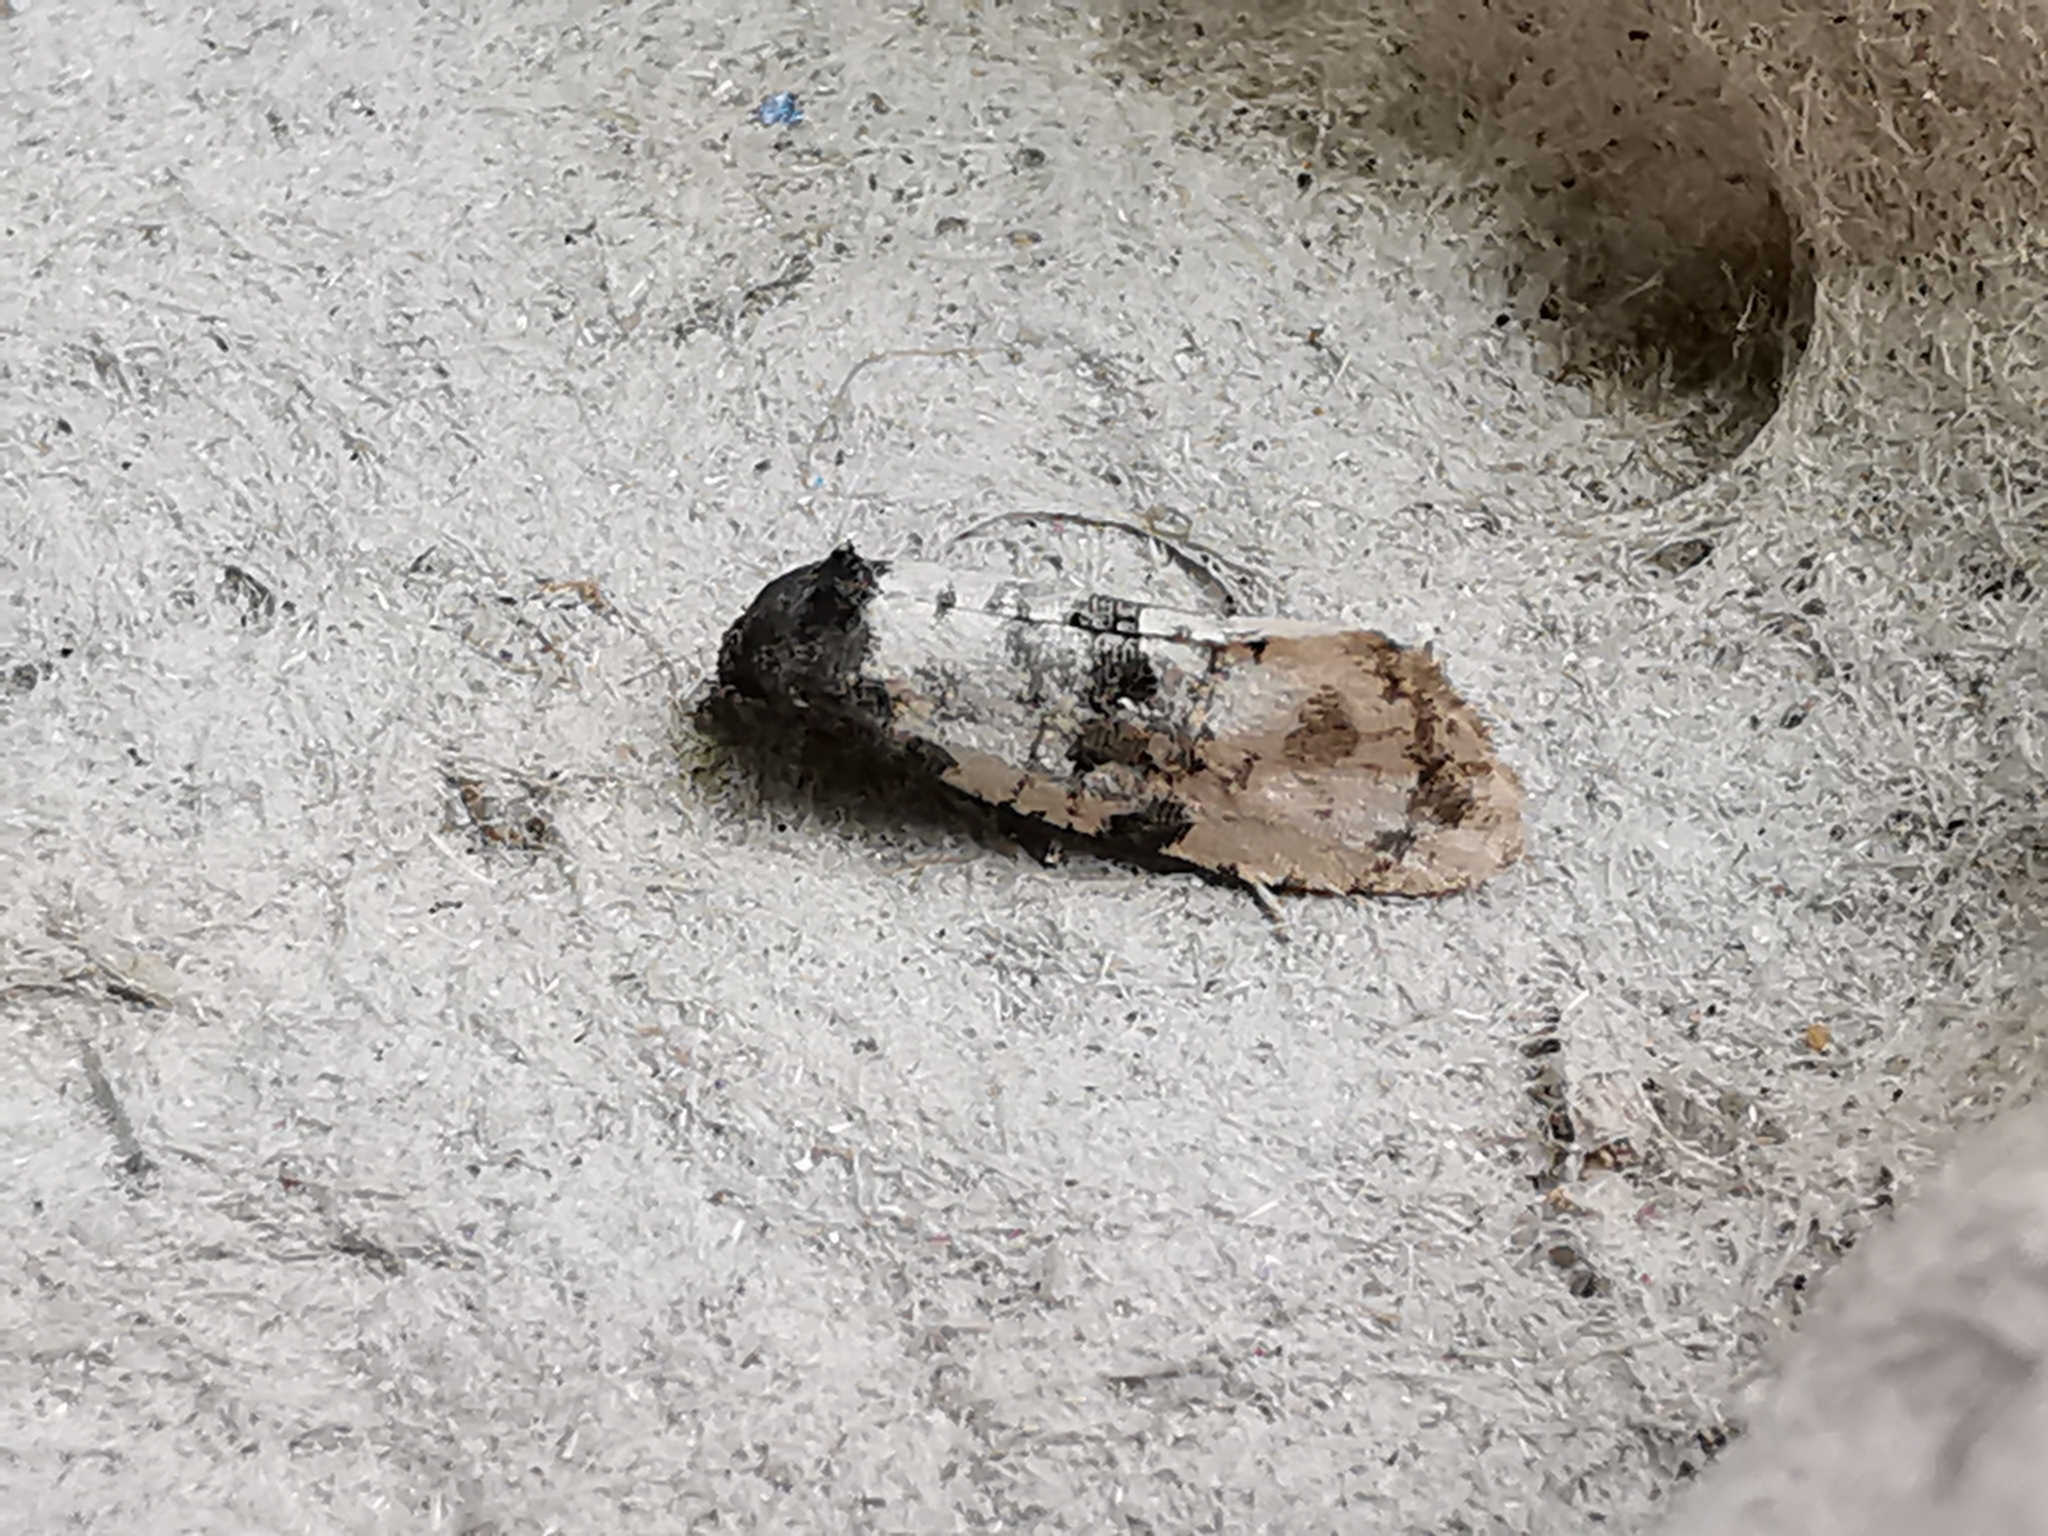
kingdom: Animalia
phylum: Arthropoda
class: Insecta
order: Lepidoptera
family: Tortricidae
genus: Cochylis
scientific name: Cochylis atricapitana
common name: Tortricid moth
